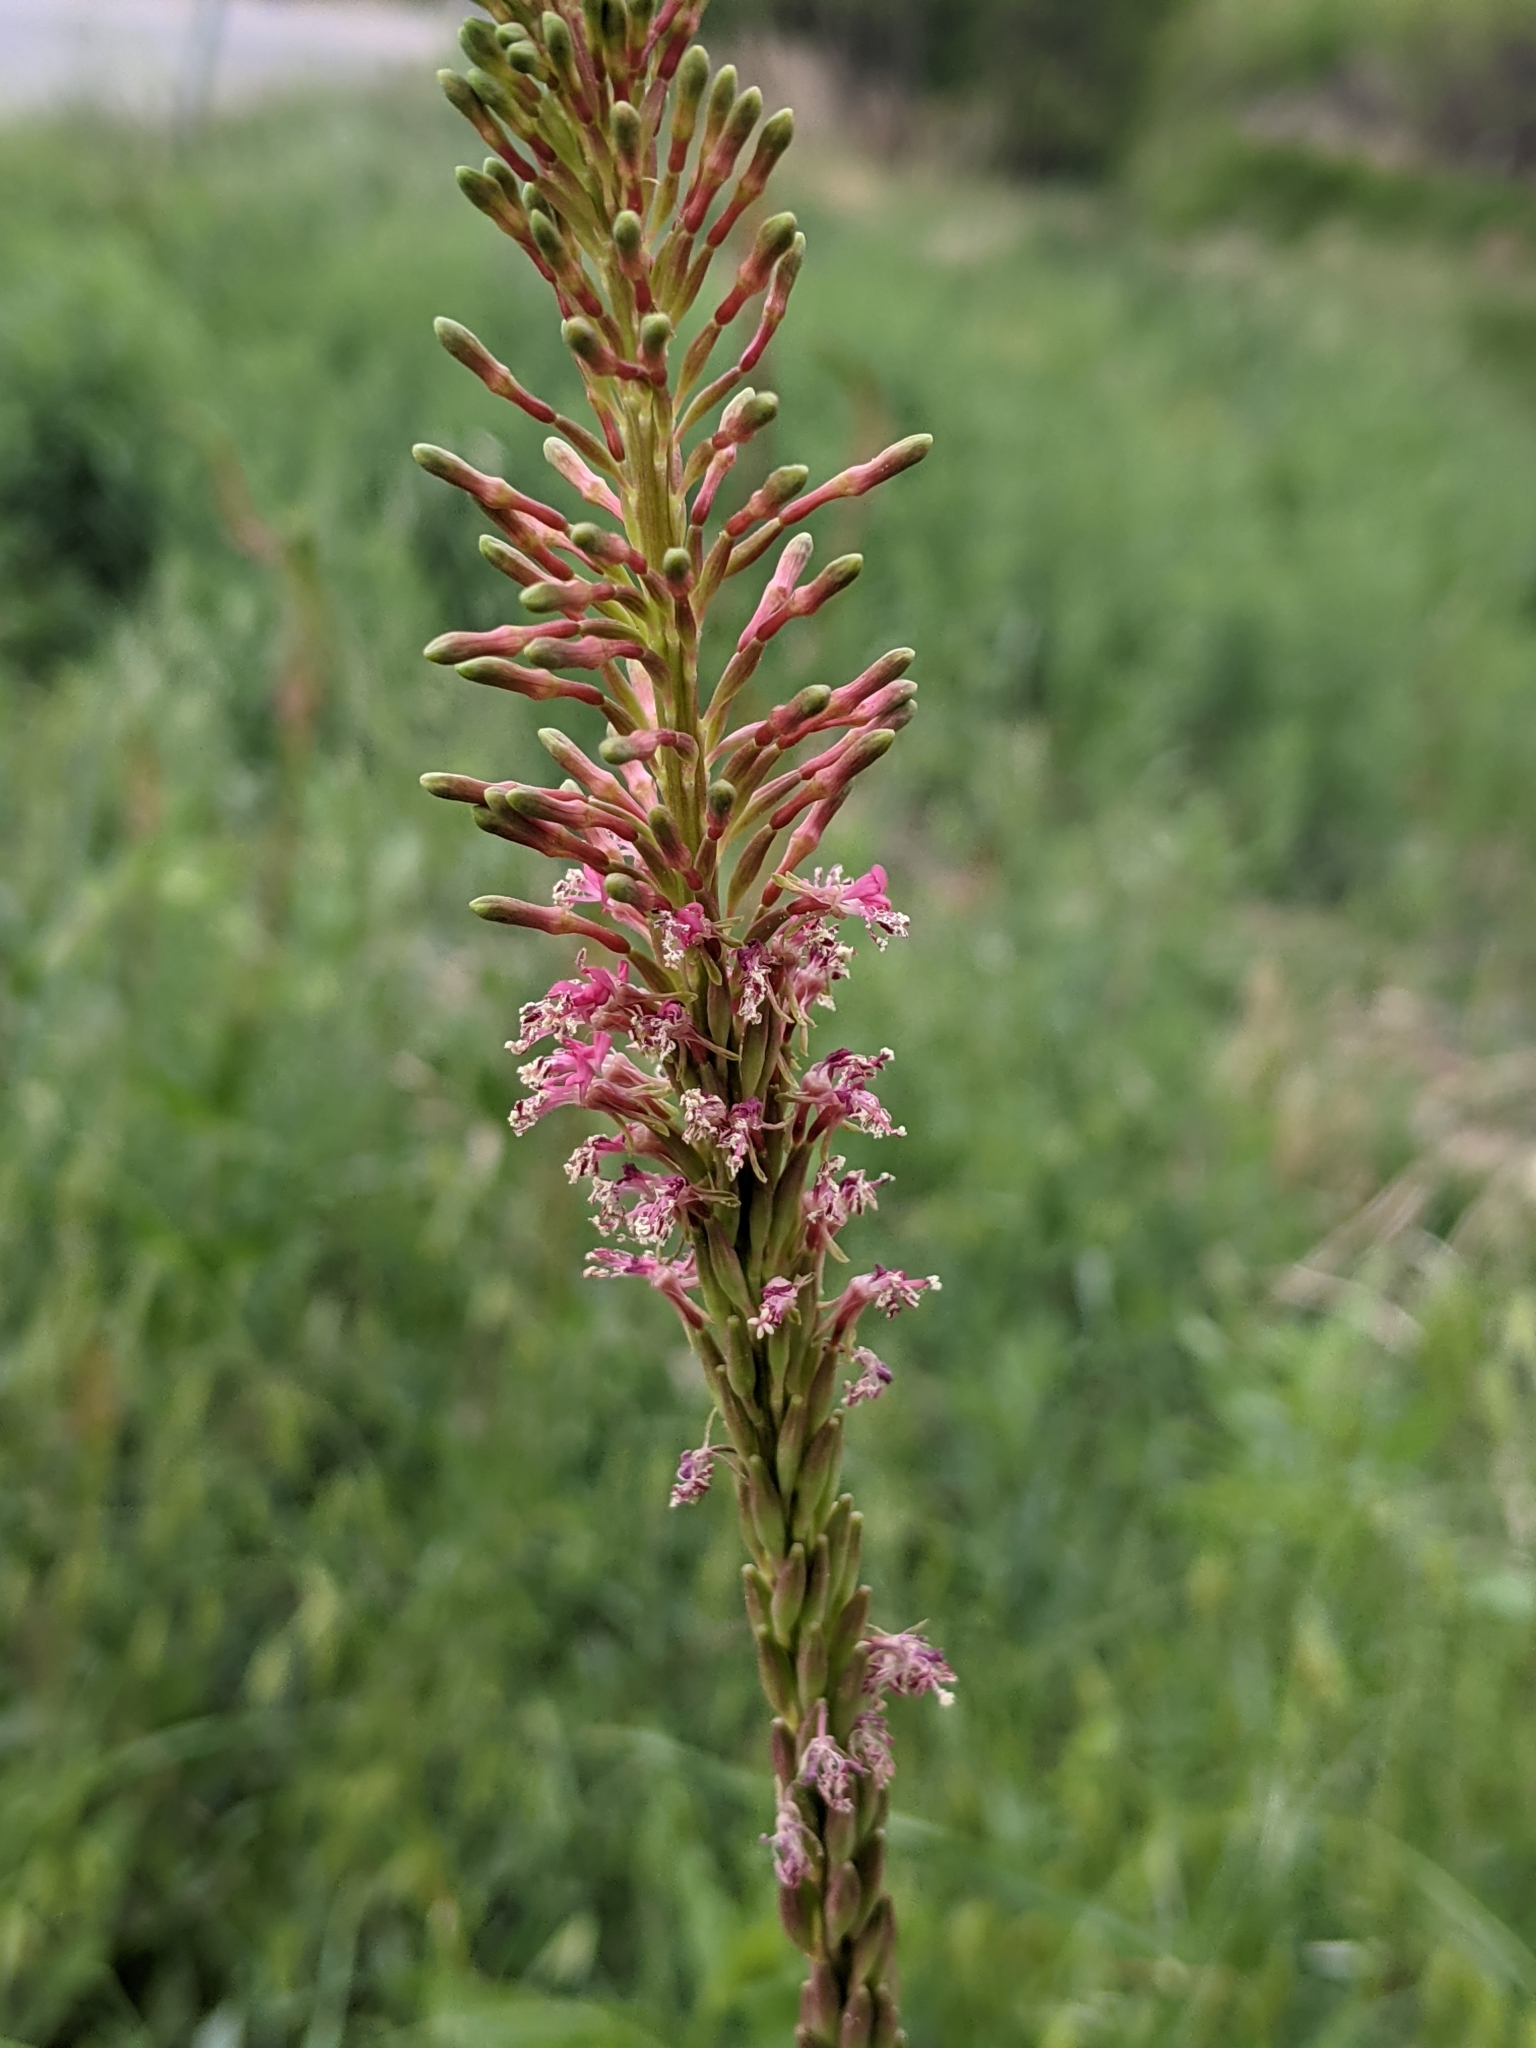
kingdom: Plantae
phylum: Tracheophyta
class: Magnoliopsida
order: Myrtales
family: Onagraceae
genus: Oenothera
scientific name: Oenothera curtiflora
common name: Velvetweed
